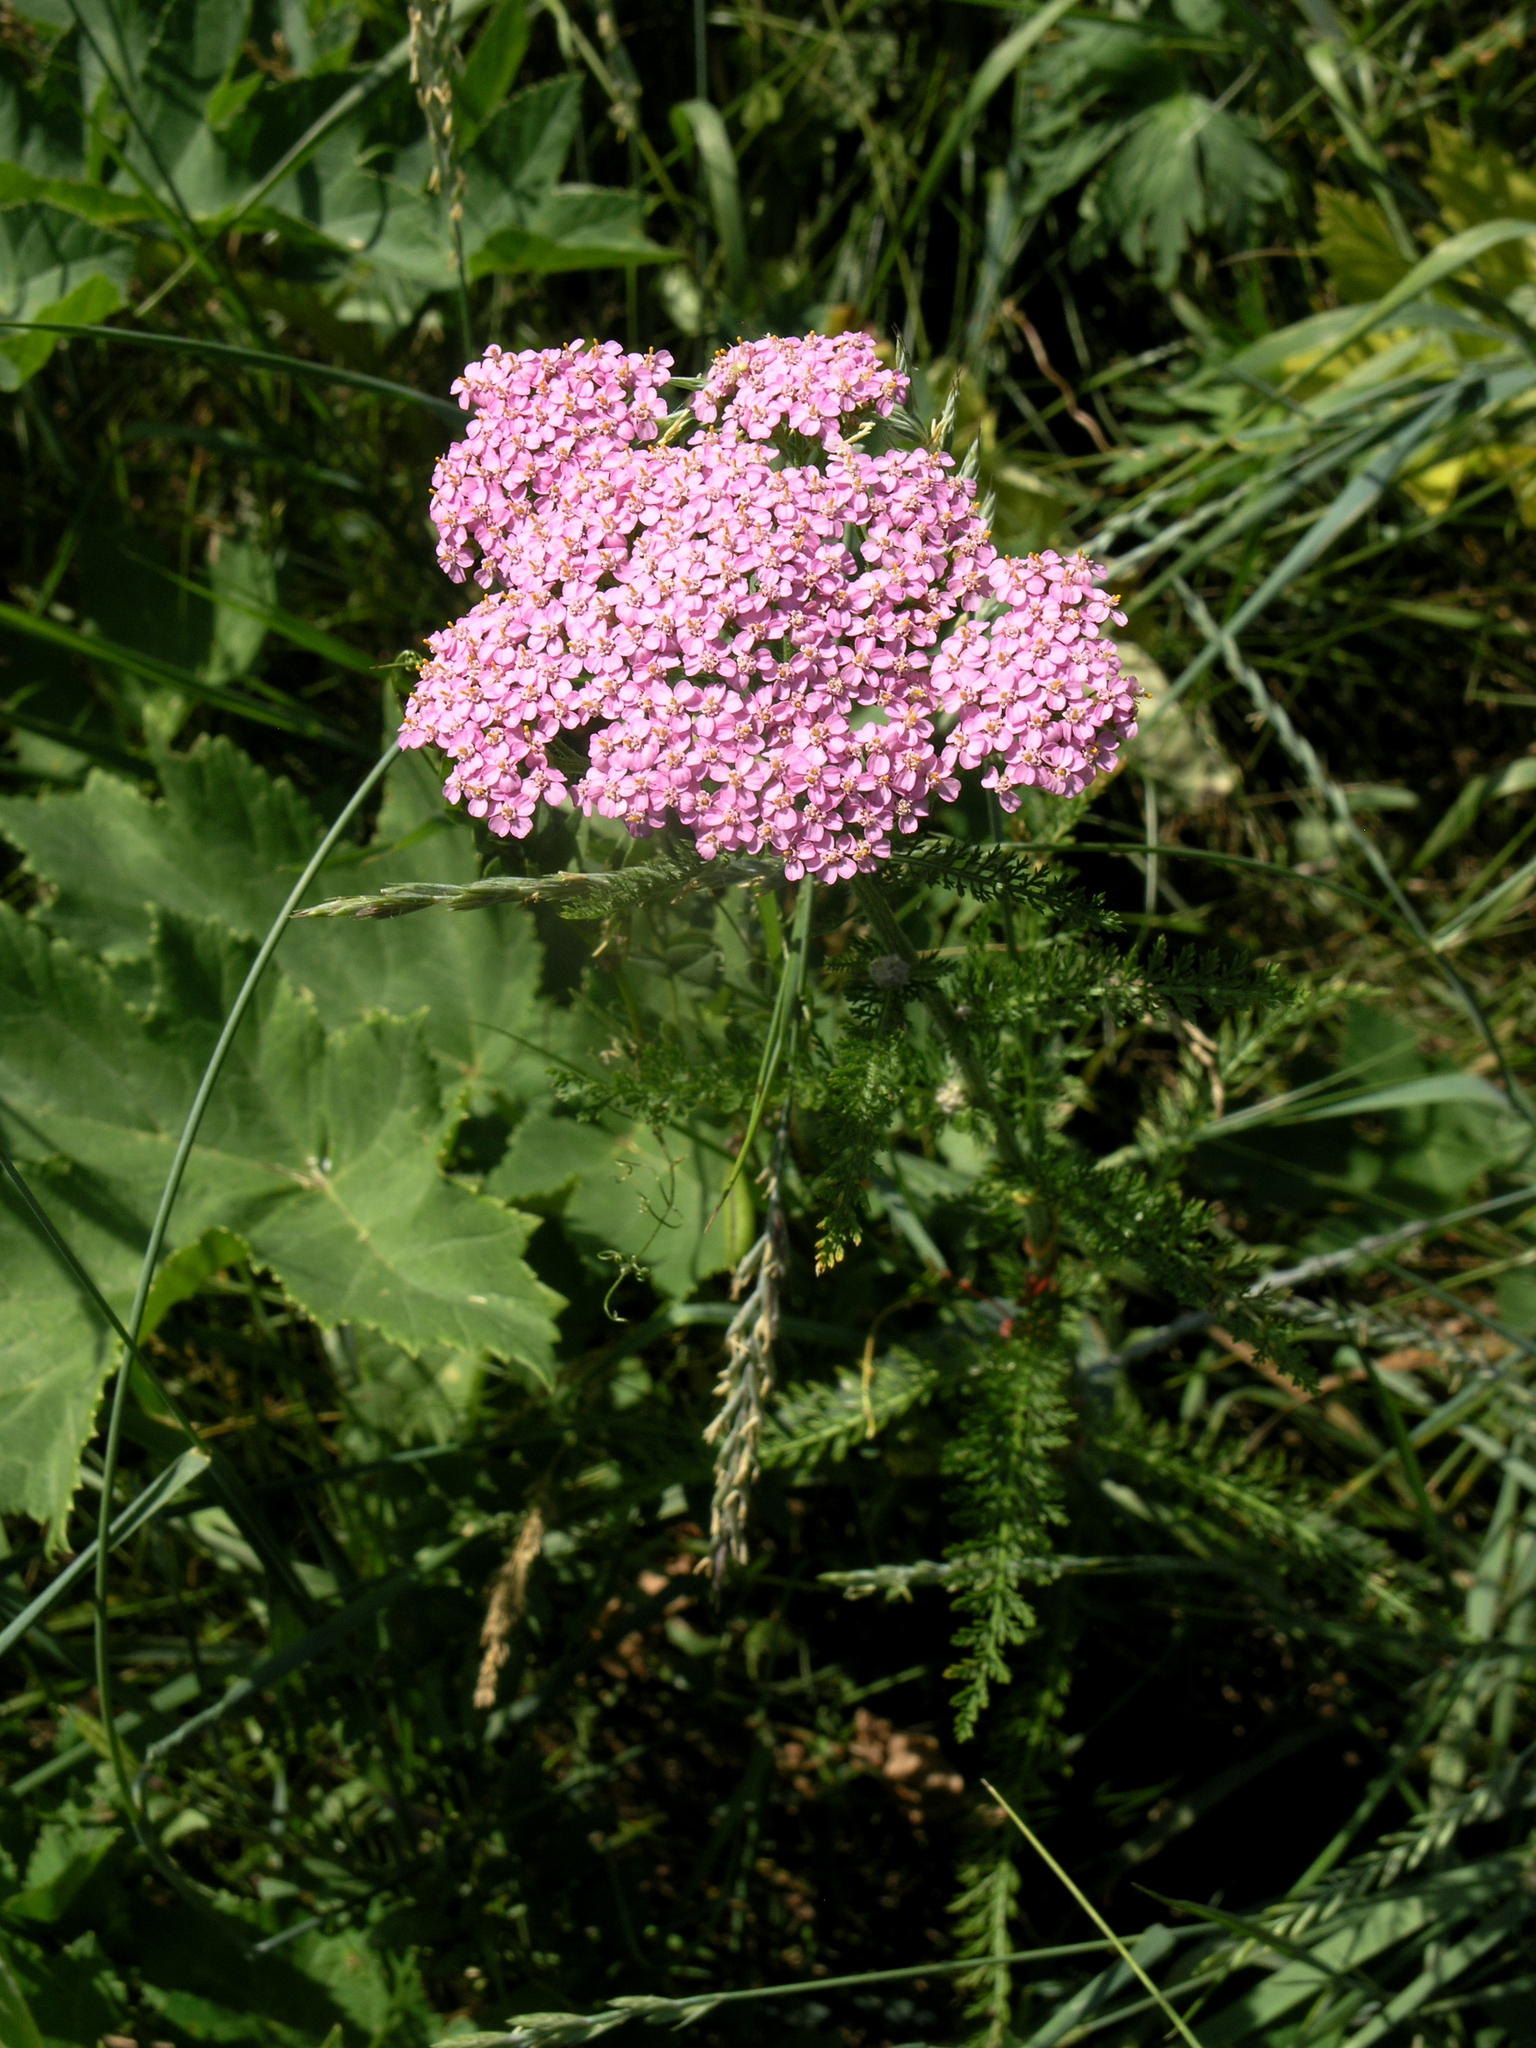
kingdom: Plantae
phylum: Tracheophyta
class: Magnoliopsida
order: Asterales
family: Asteraceae
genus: Achillea
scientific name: Achillea asiatica
